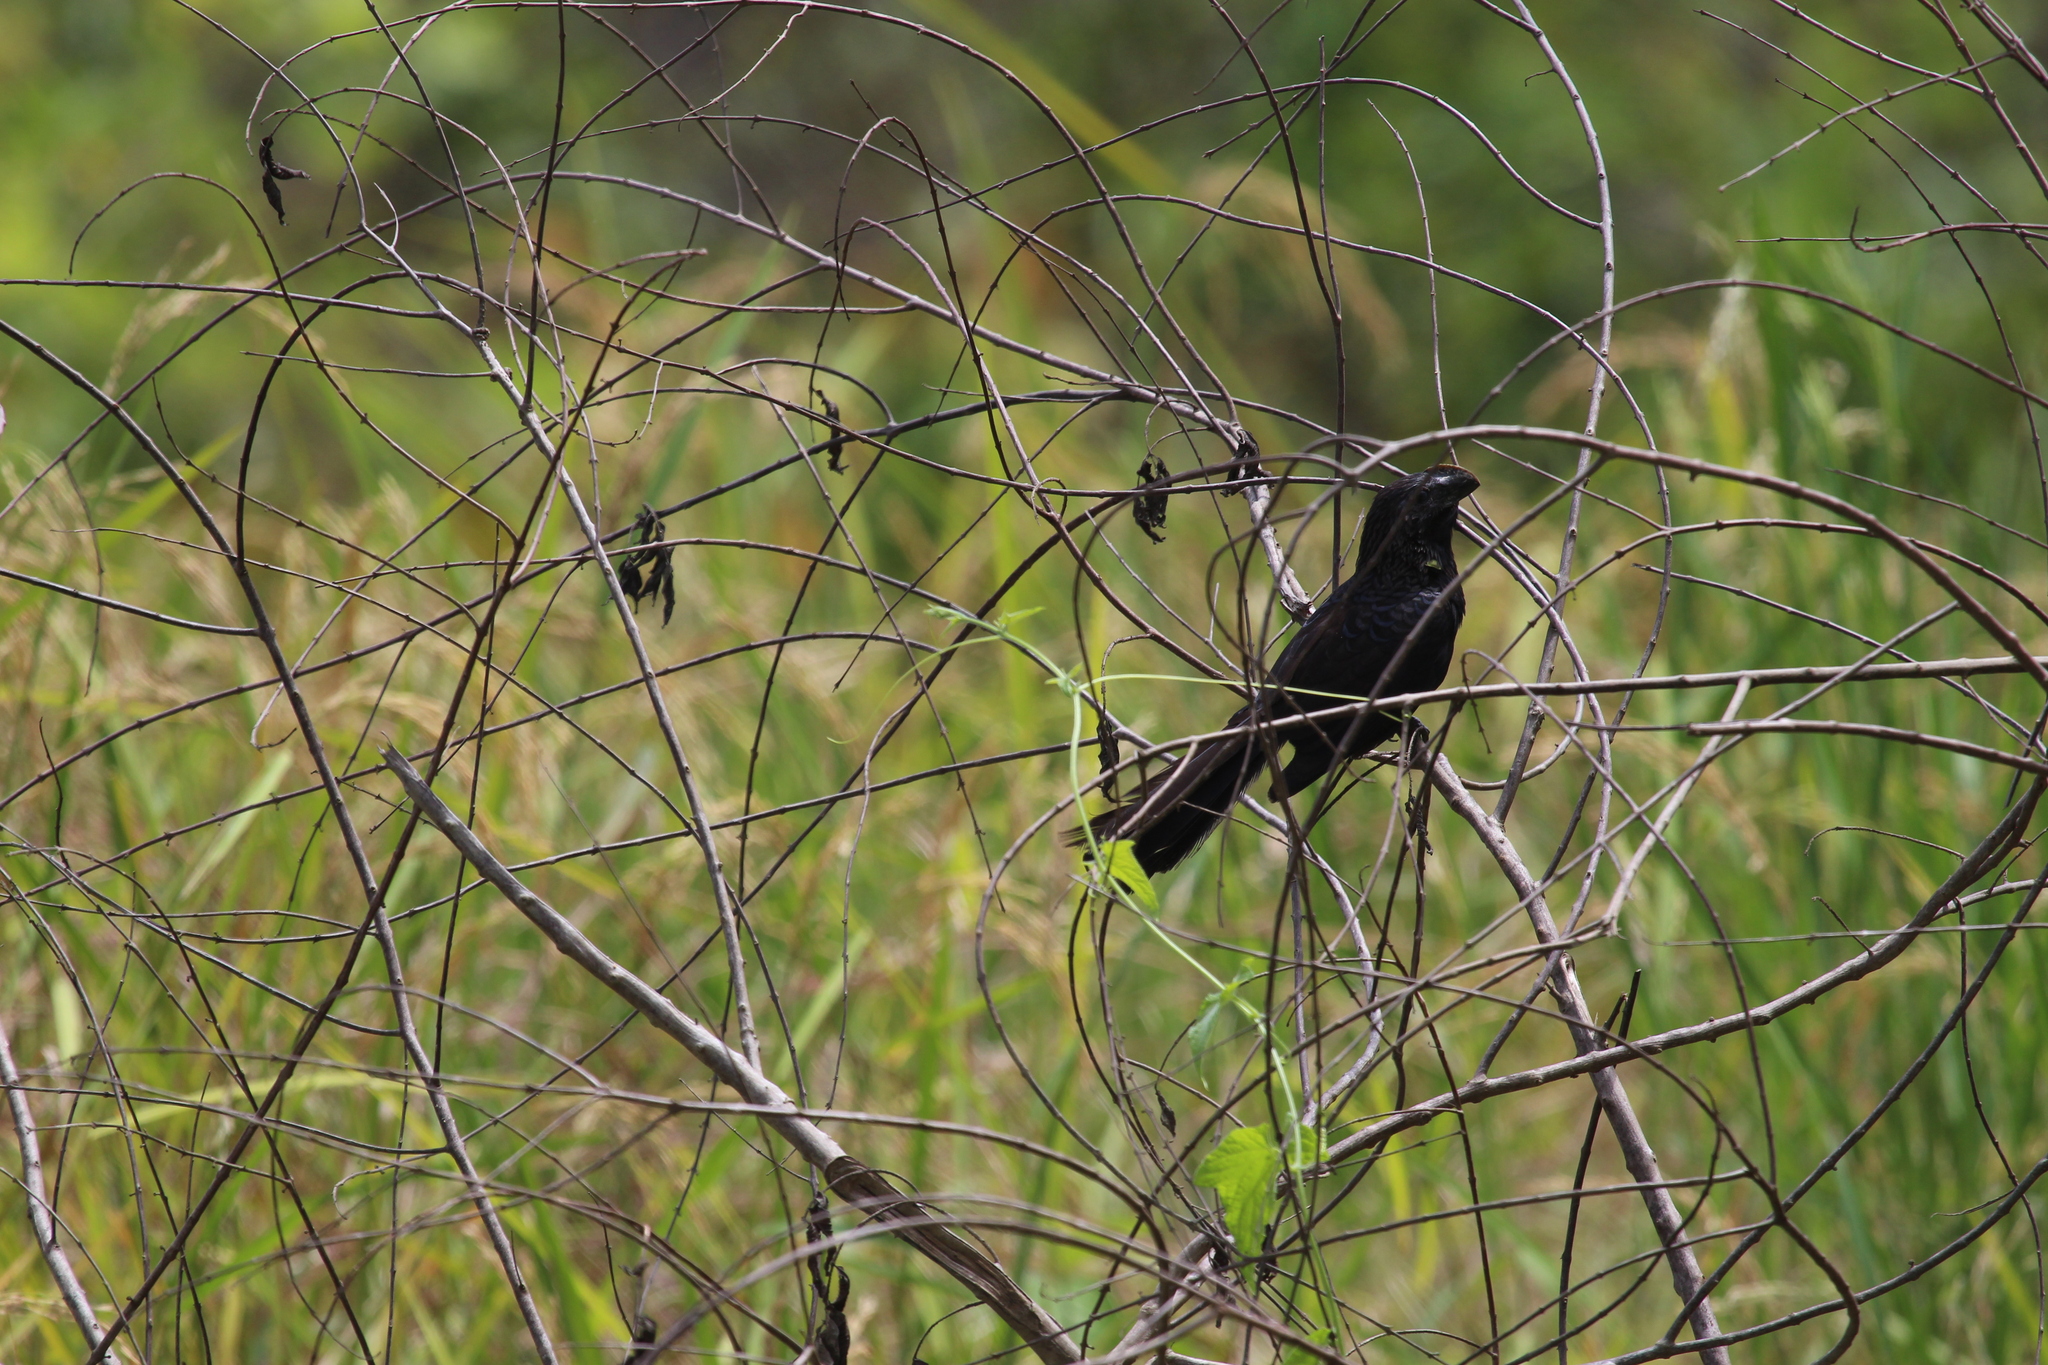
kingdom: Animalia
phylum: Chordata
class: Aves
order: Cuculiformes
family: Cuculidae
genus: Crotophaga
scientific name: Crotophaga ani
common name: Smooth-billed ani
